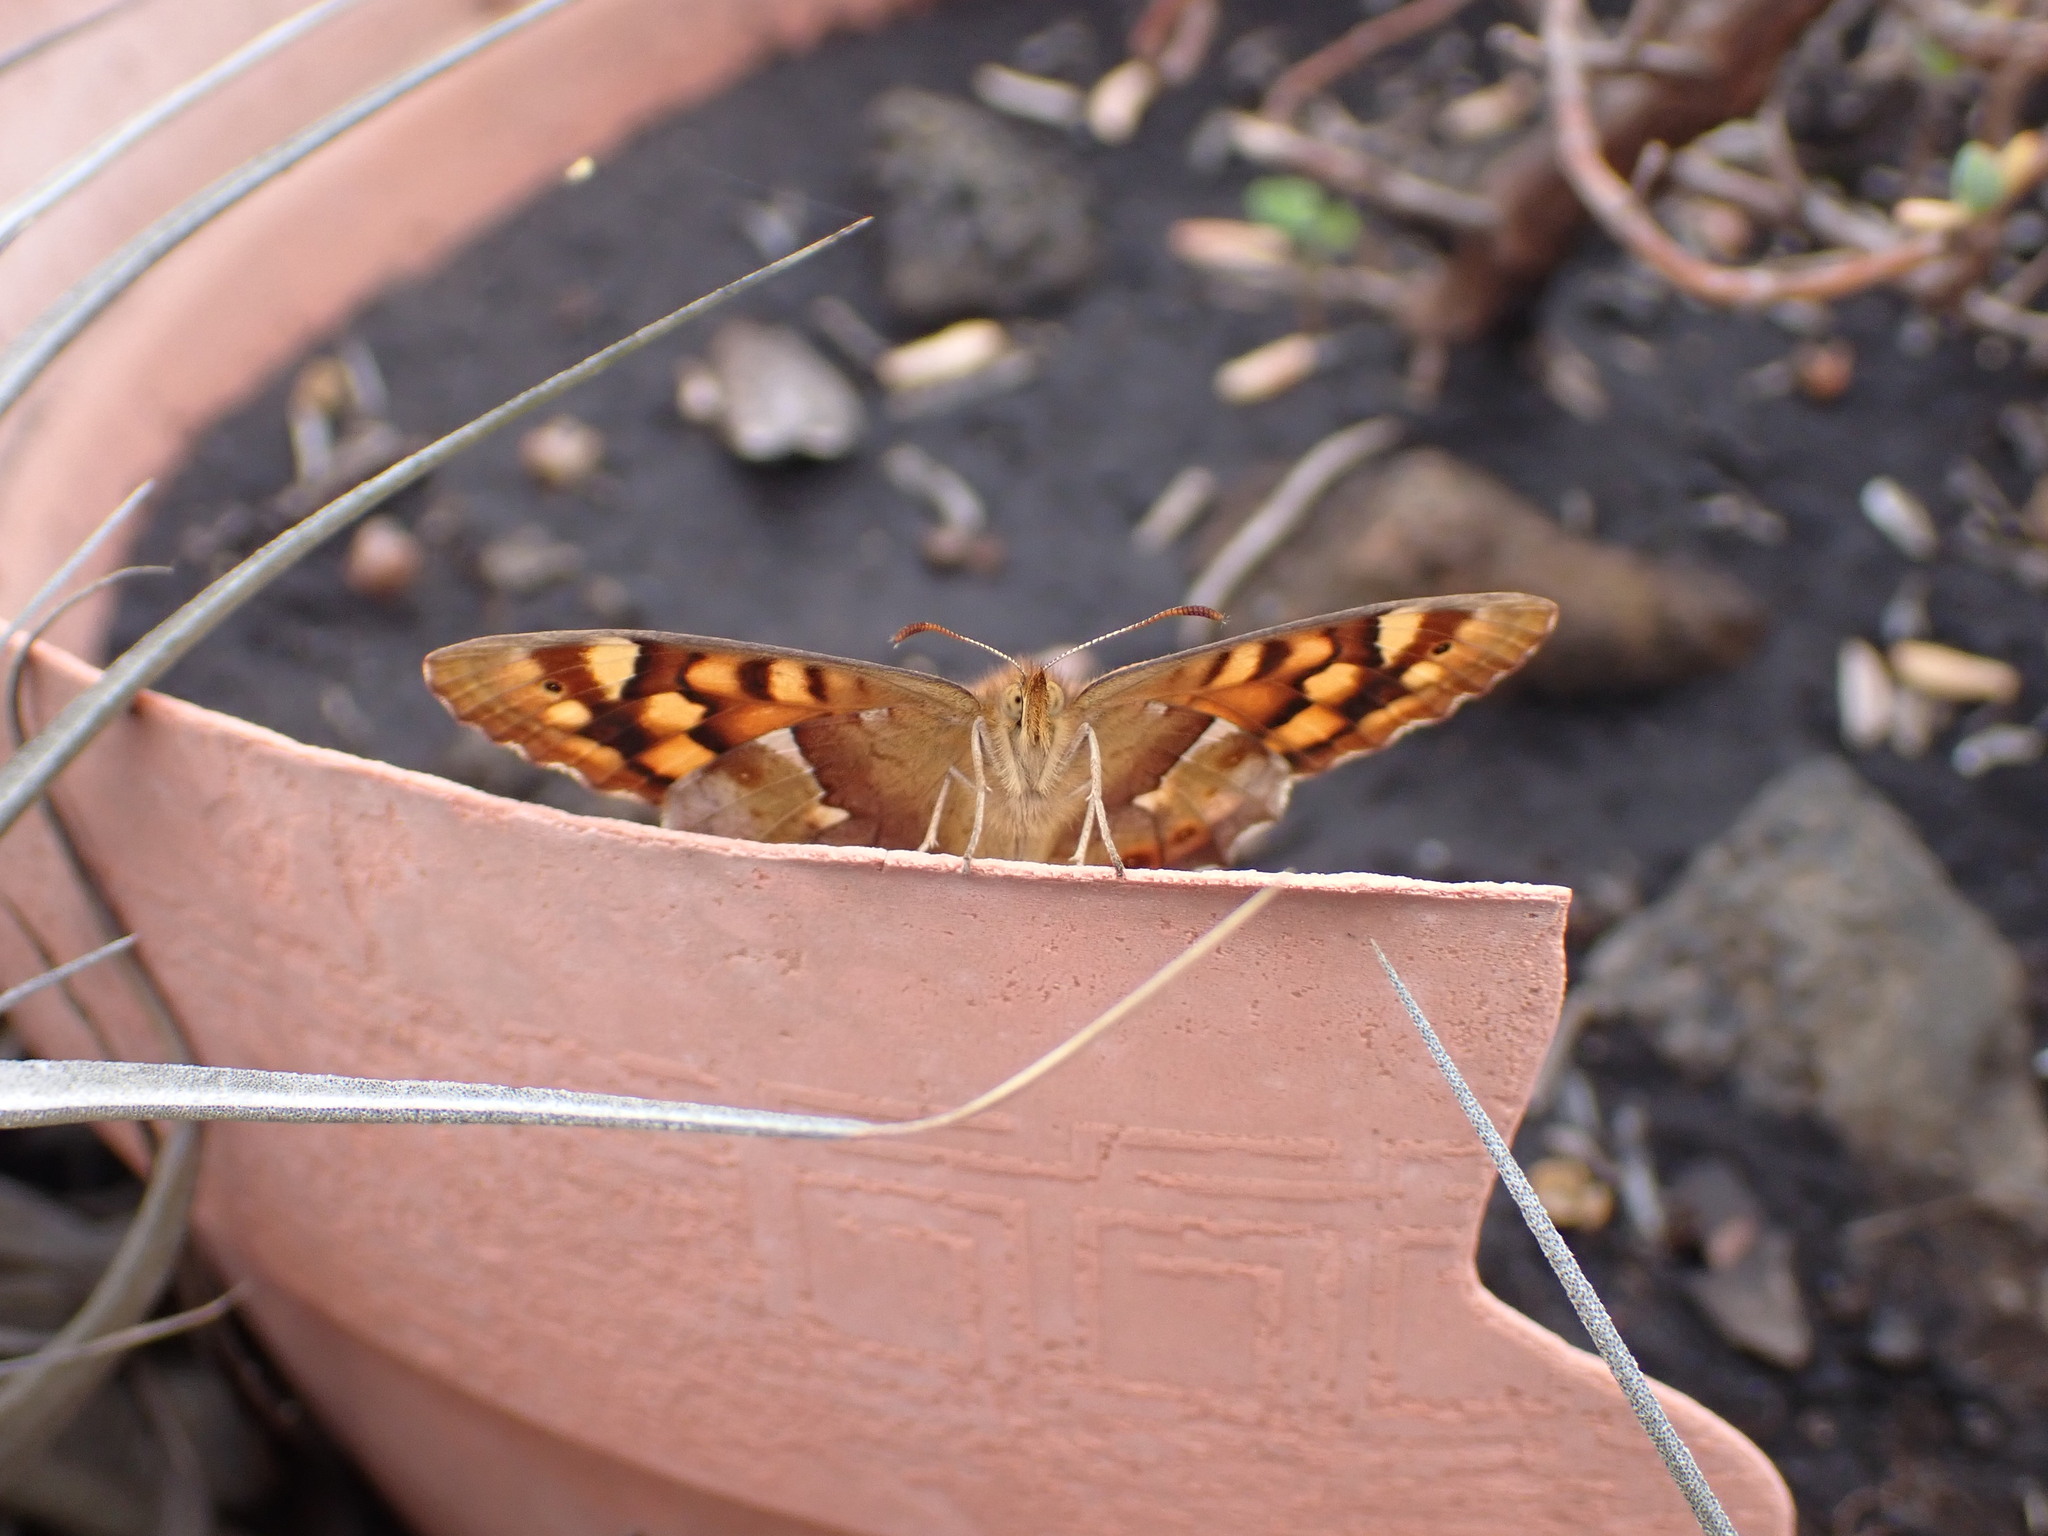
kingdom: Animalia
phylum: Arthropoda
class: Insecta
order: Lepidoptera
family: Nymphalidae
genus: Pararge
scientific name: Pararge aegeria
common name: Speckled wood
